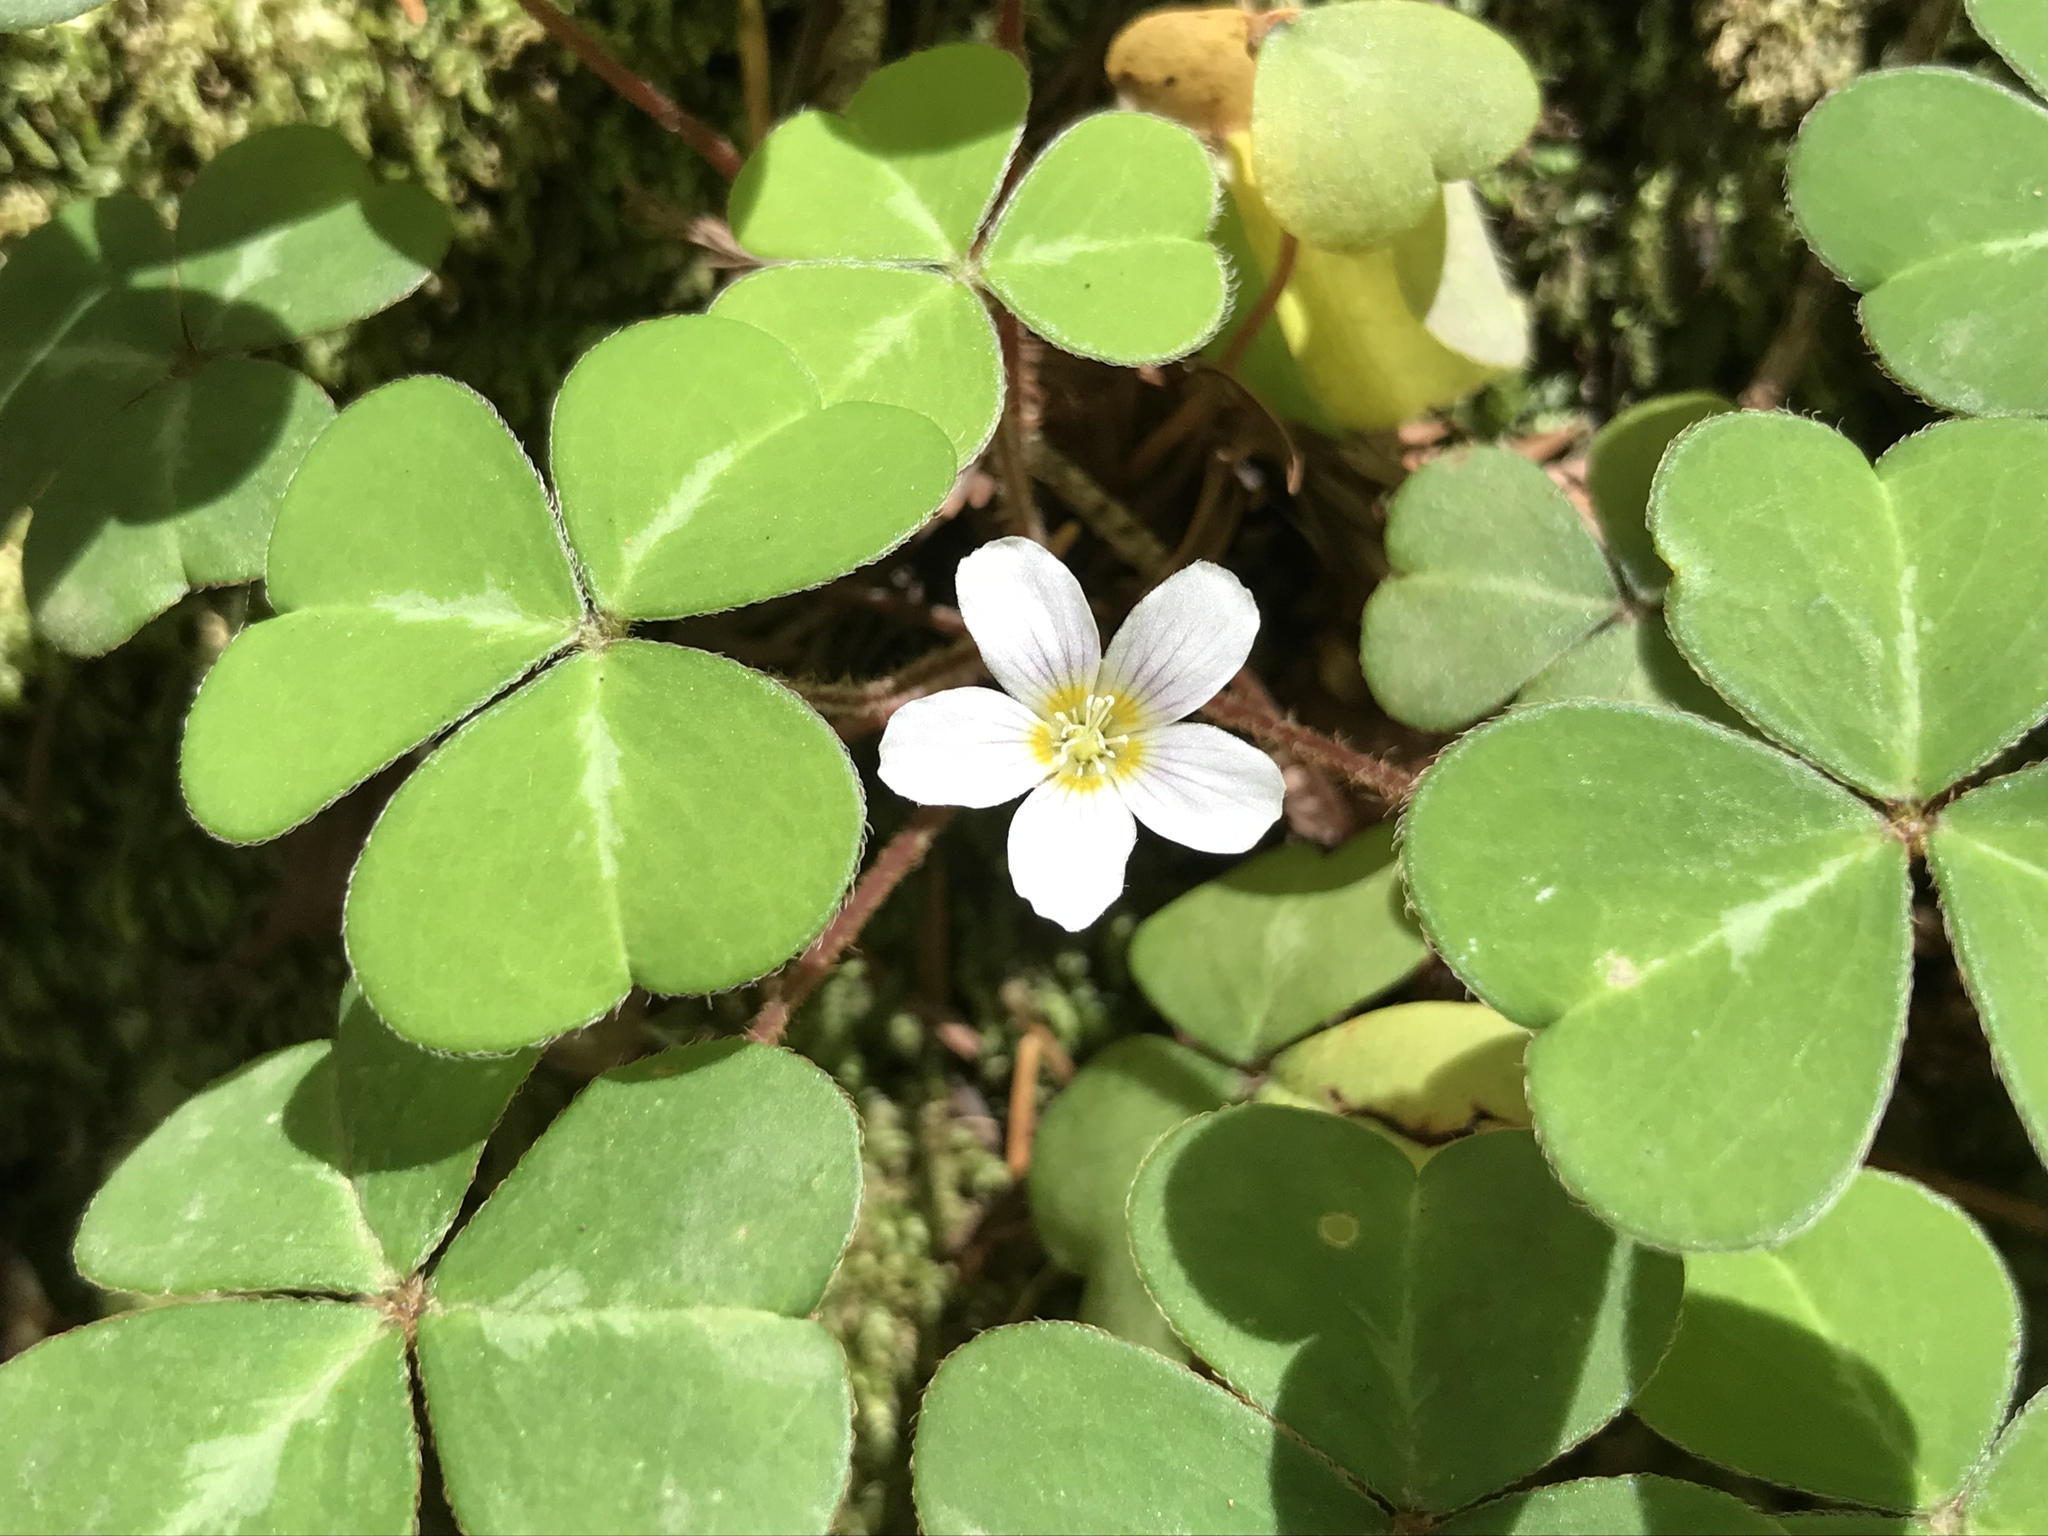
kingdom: Plantae
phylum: Tracheophyta
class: Magnoliopsida
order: Oxalidales
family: Oxalidaceae
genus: Oxalis
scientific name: Oxalis oregana
